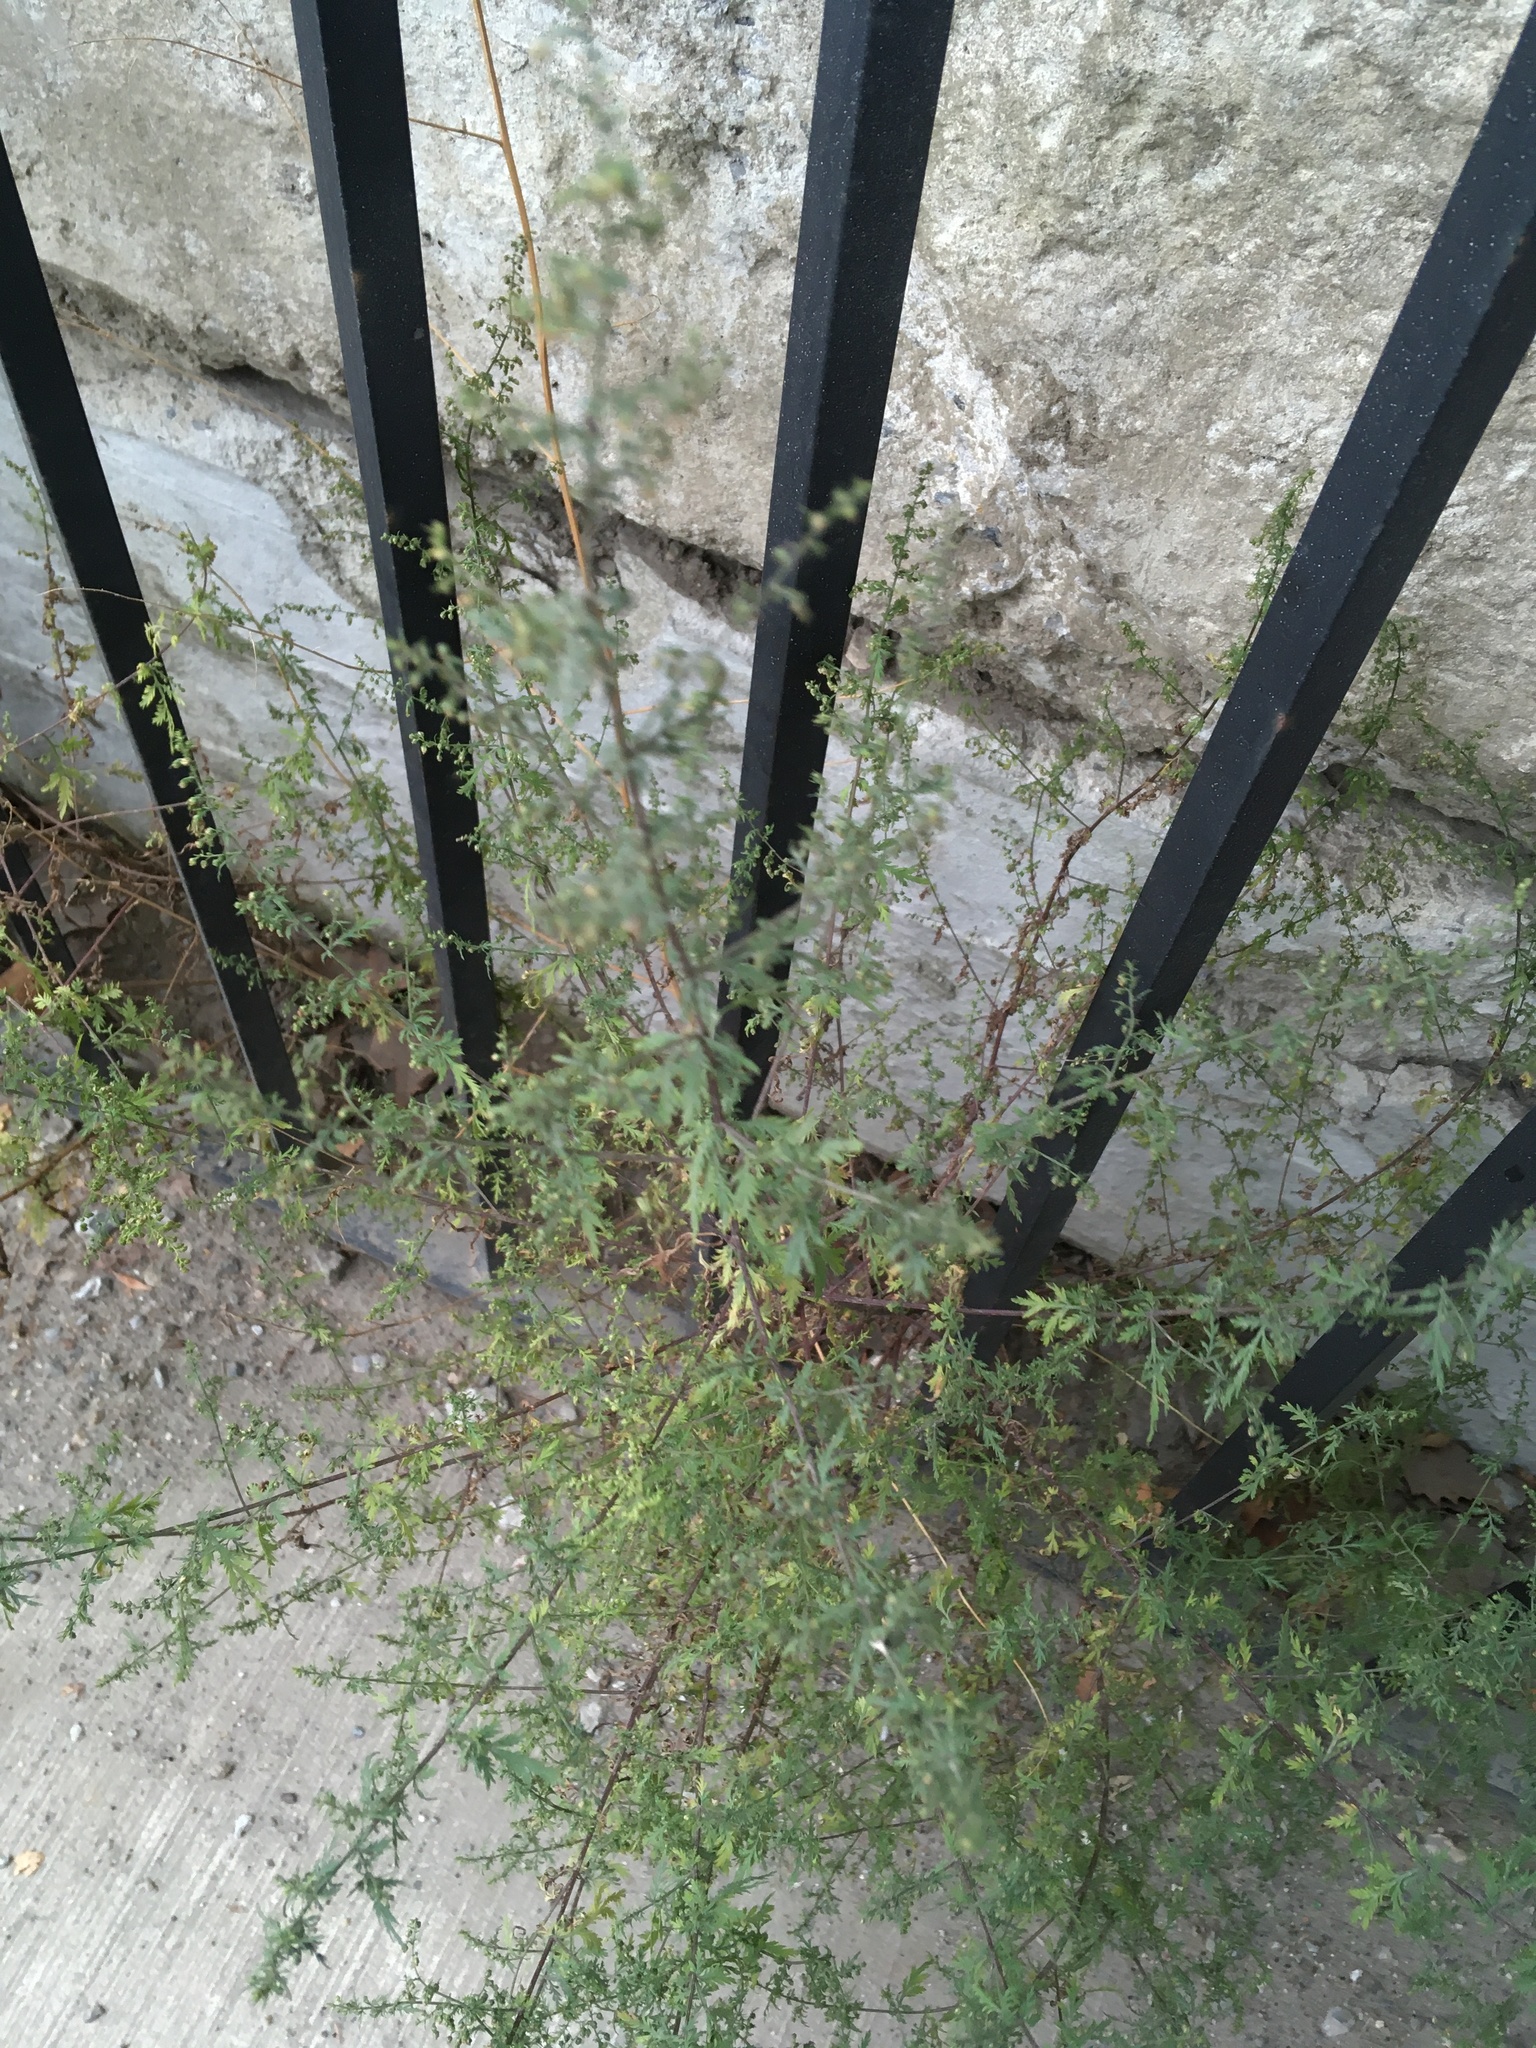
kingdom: Plantae
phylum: Tracheophyta
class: Magnoliopsida
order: Asterales
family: Asteraceae
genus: Artemisia
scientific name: Artemisia annua
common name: Sweet sagewort
